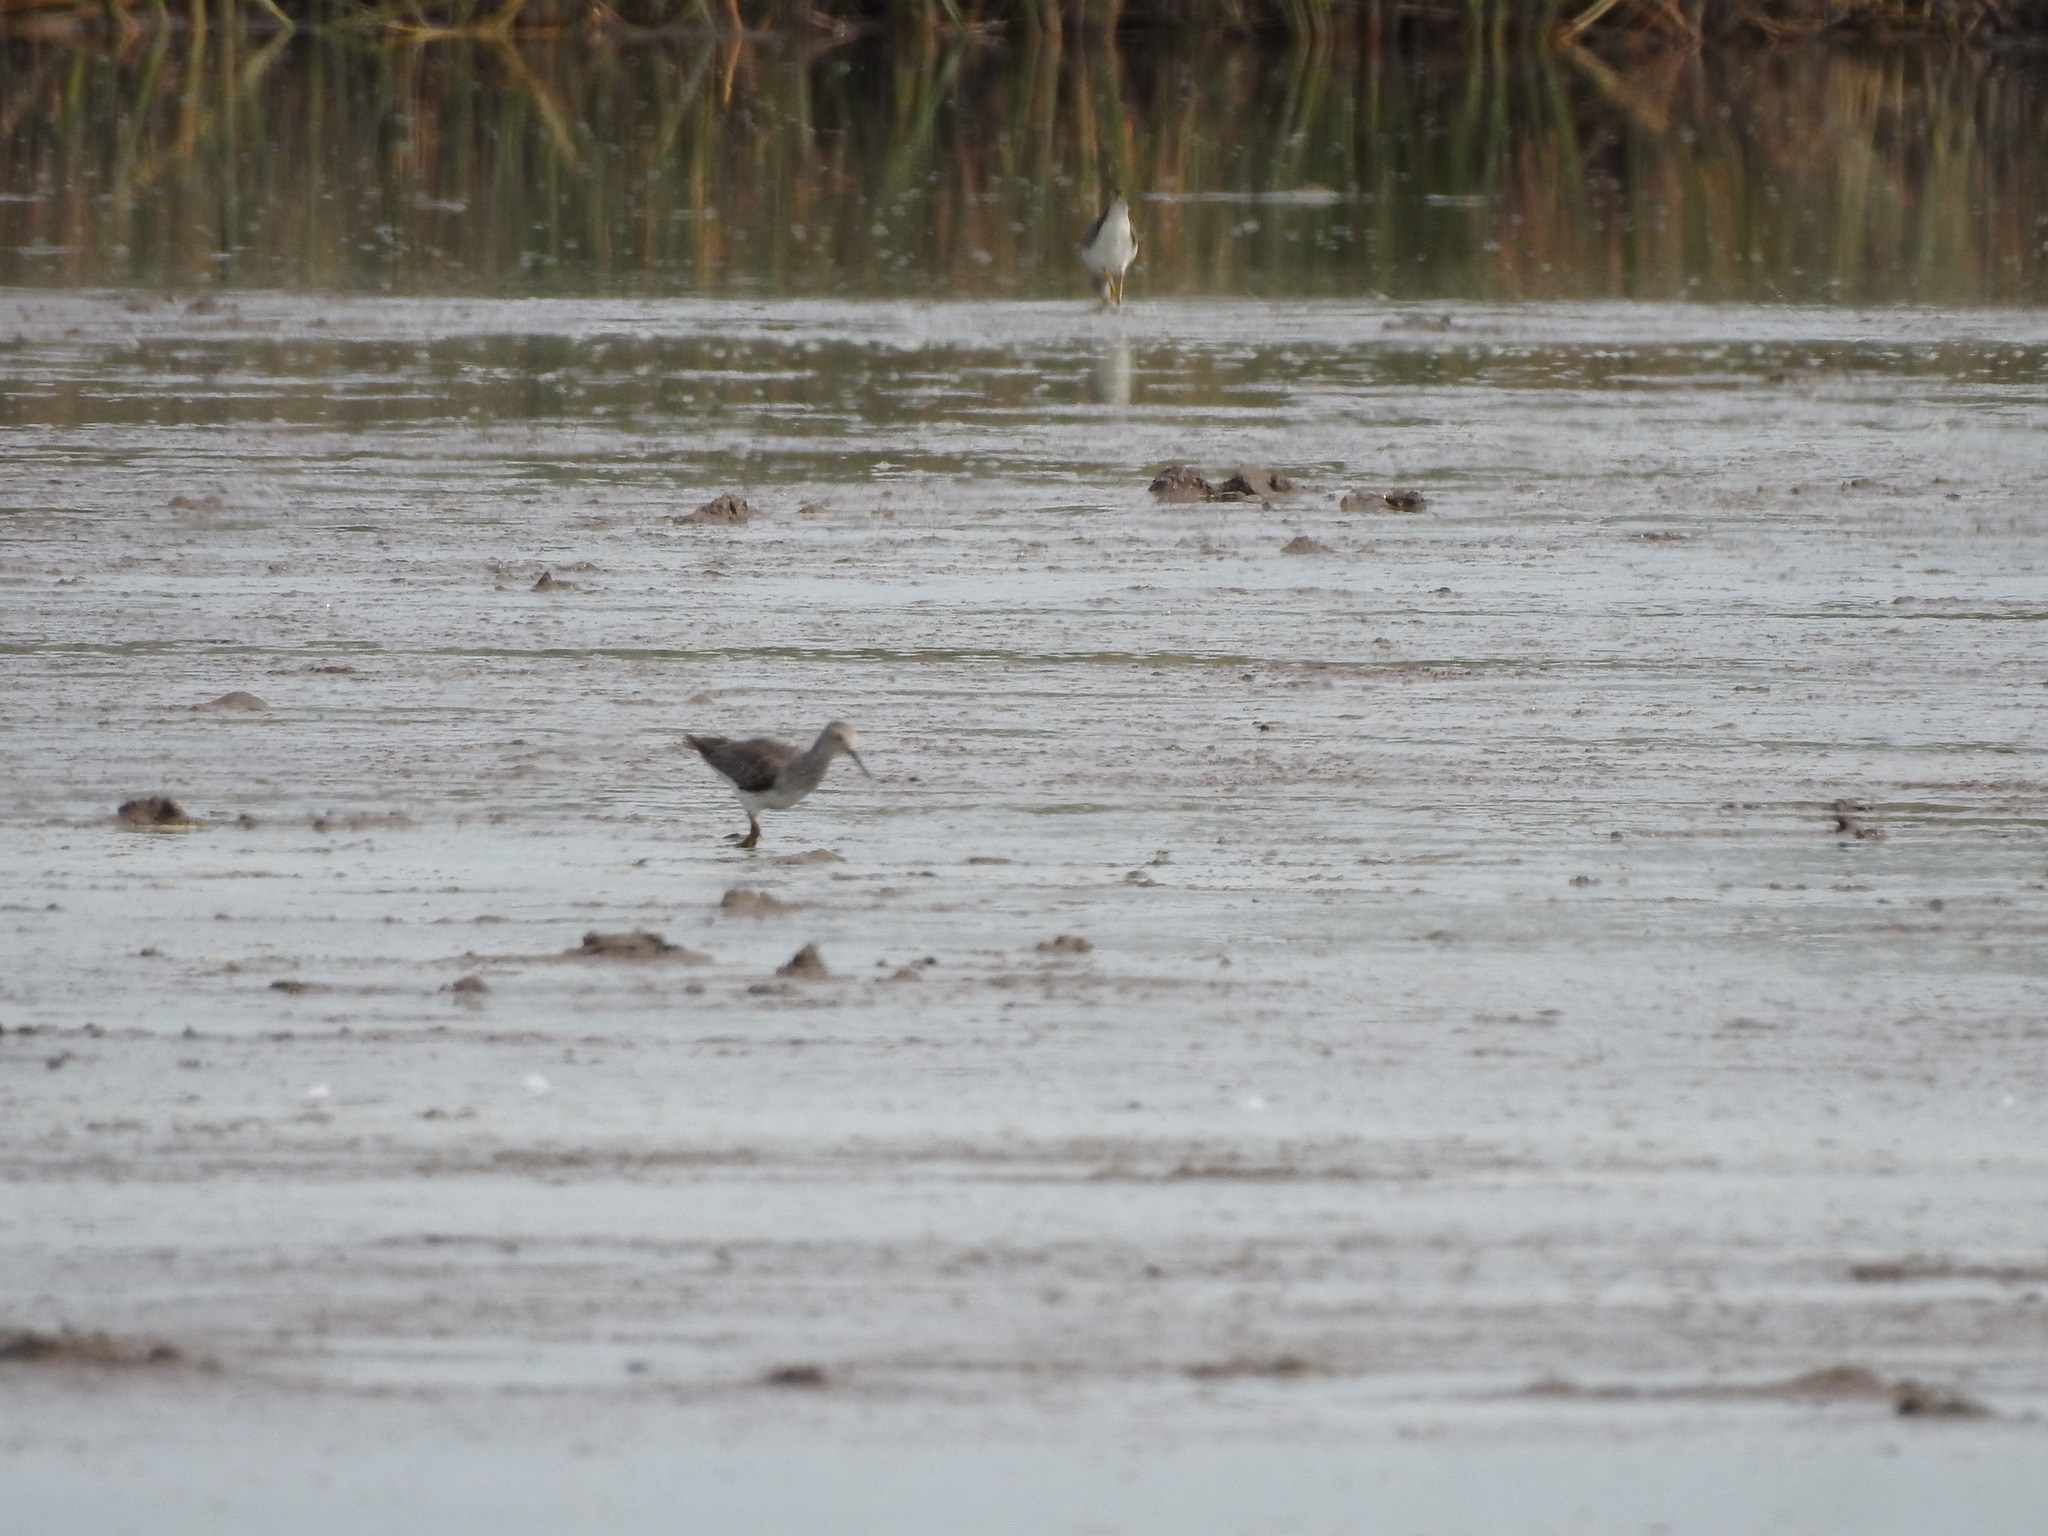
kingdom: Animalia
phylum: Chordata
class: Aves
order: Charadriiformes
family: Scolopacidae
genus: Tringa
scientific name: Tringa flavipes
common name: Lesser yellowlegs
